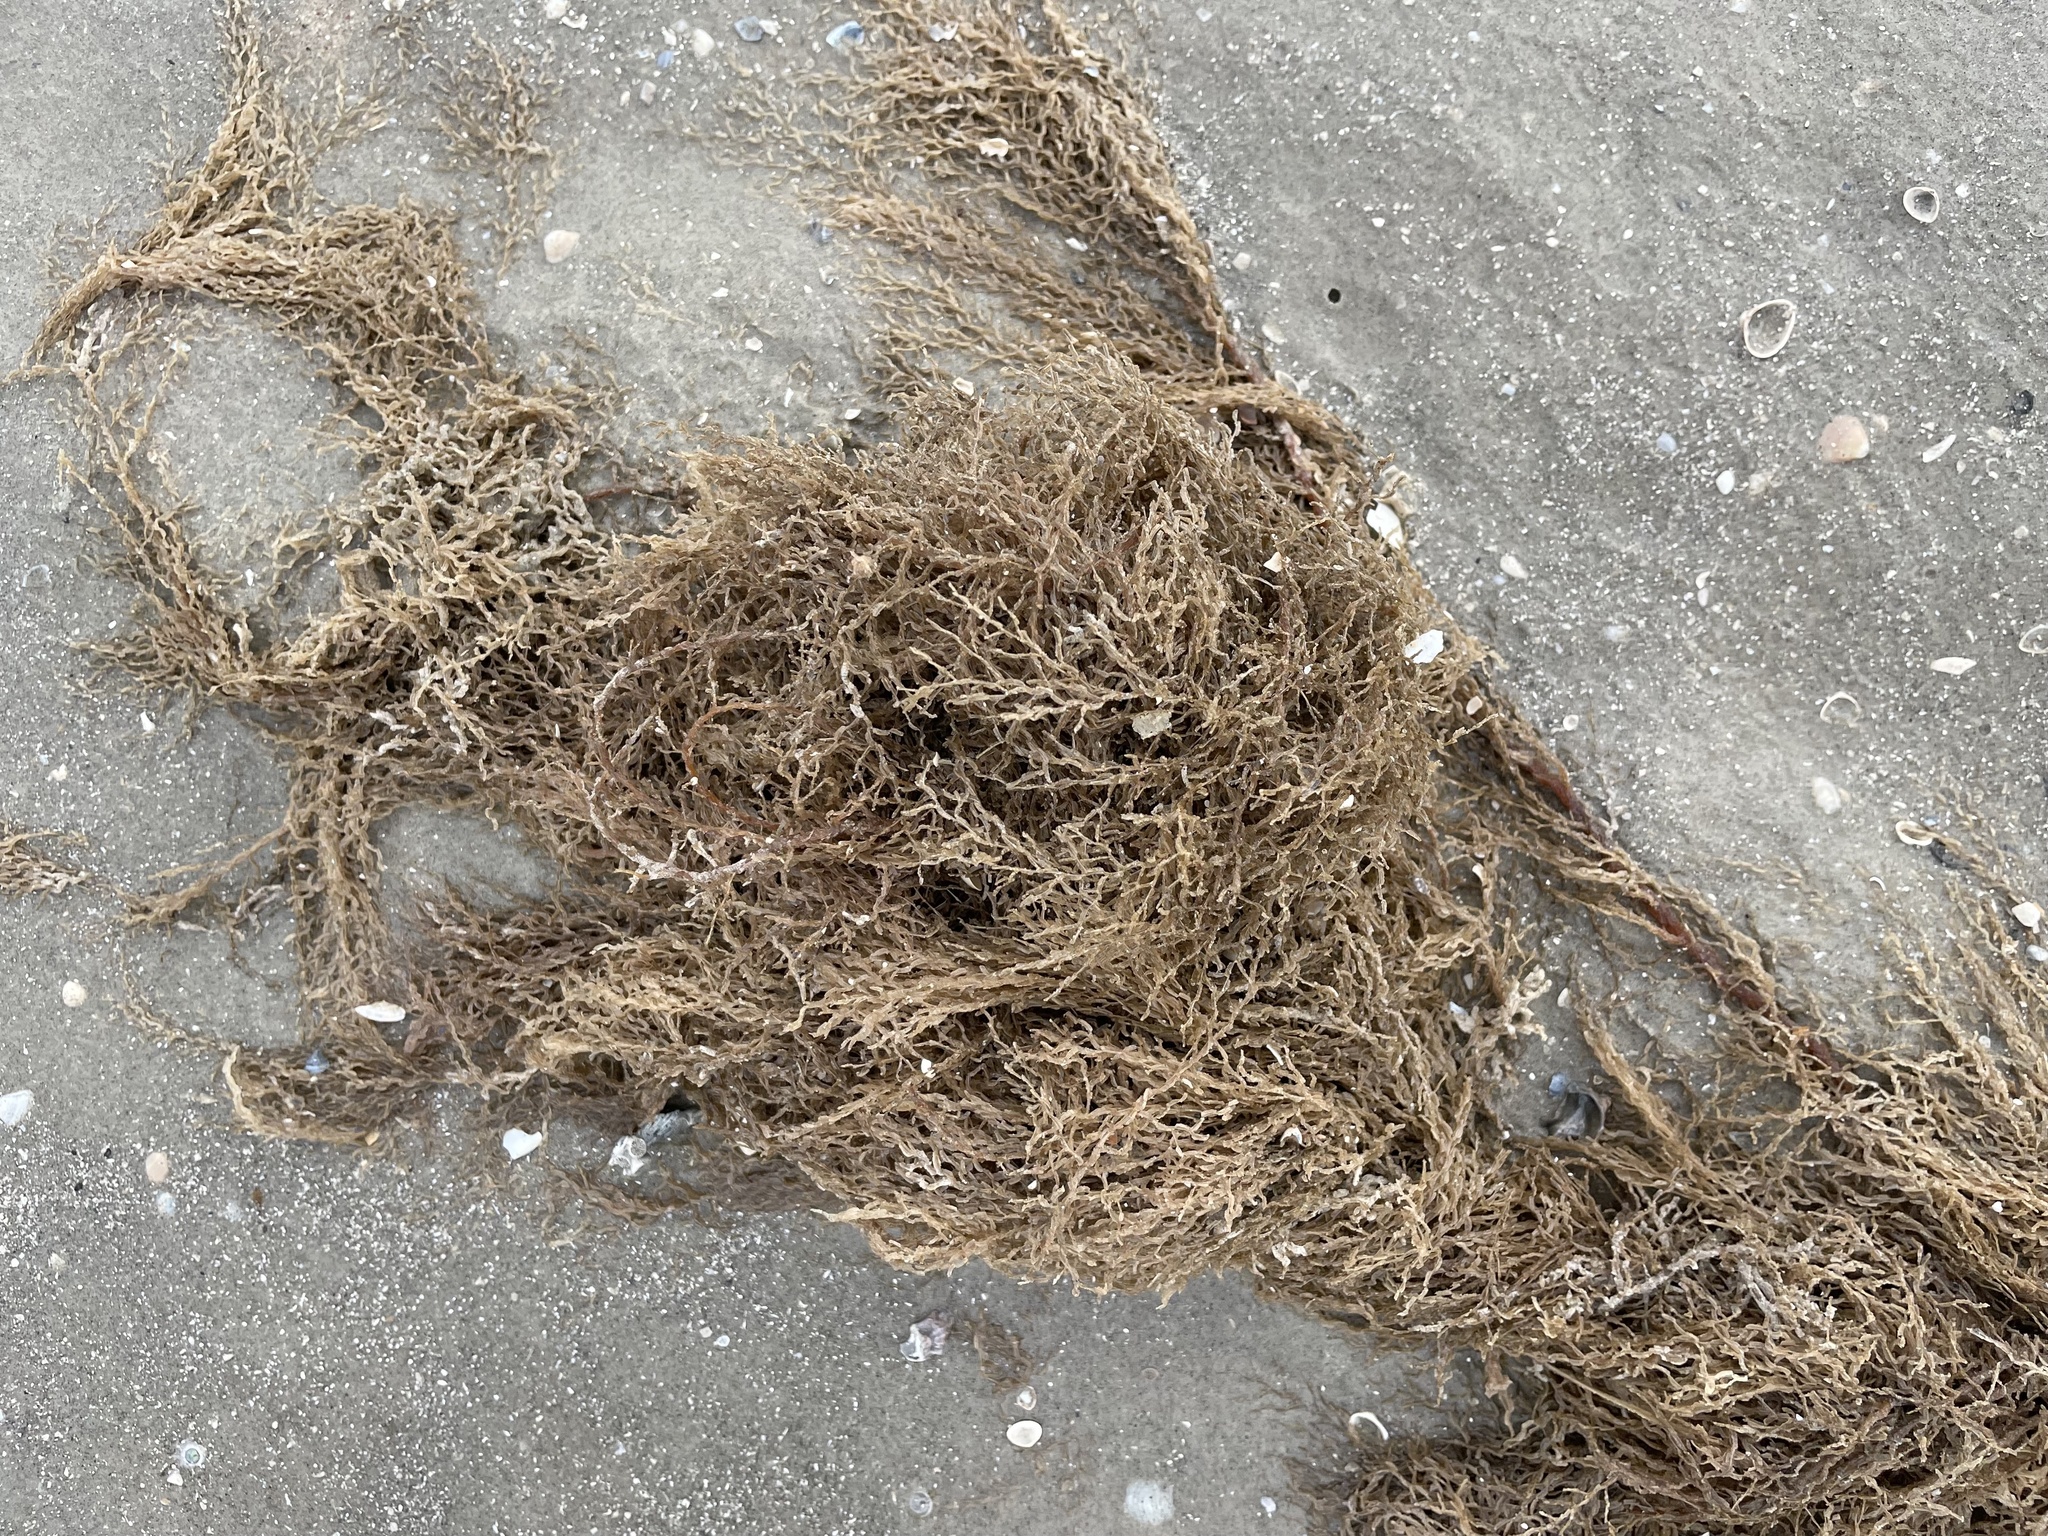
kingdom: Chromista
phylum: Ochrophyta
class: Phaeophyceae
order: Fucales
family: Sargassaceae
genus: Sargassum
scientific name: Sargassum fluitans
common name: Sargassum seaweed
